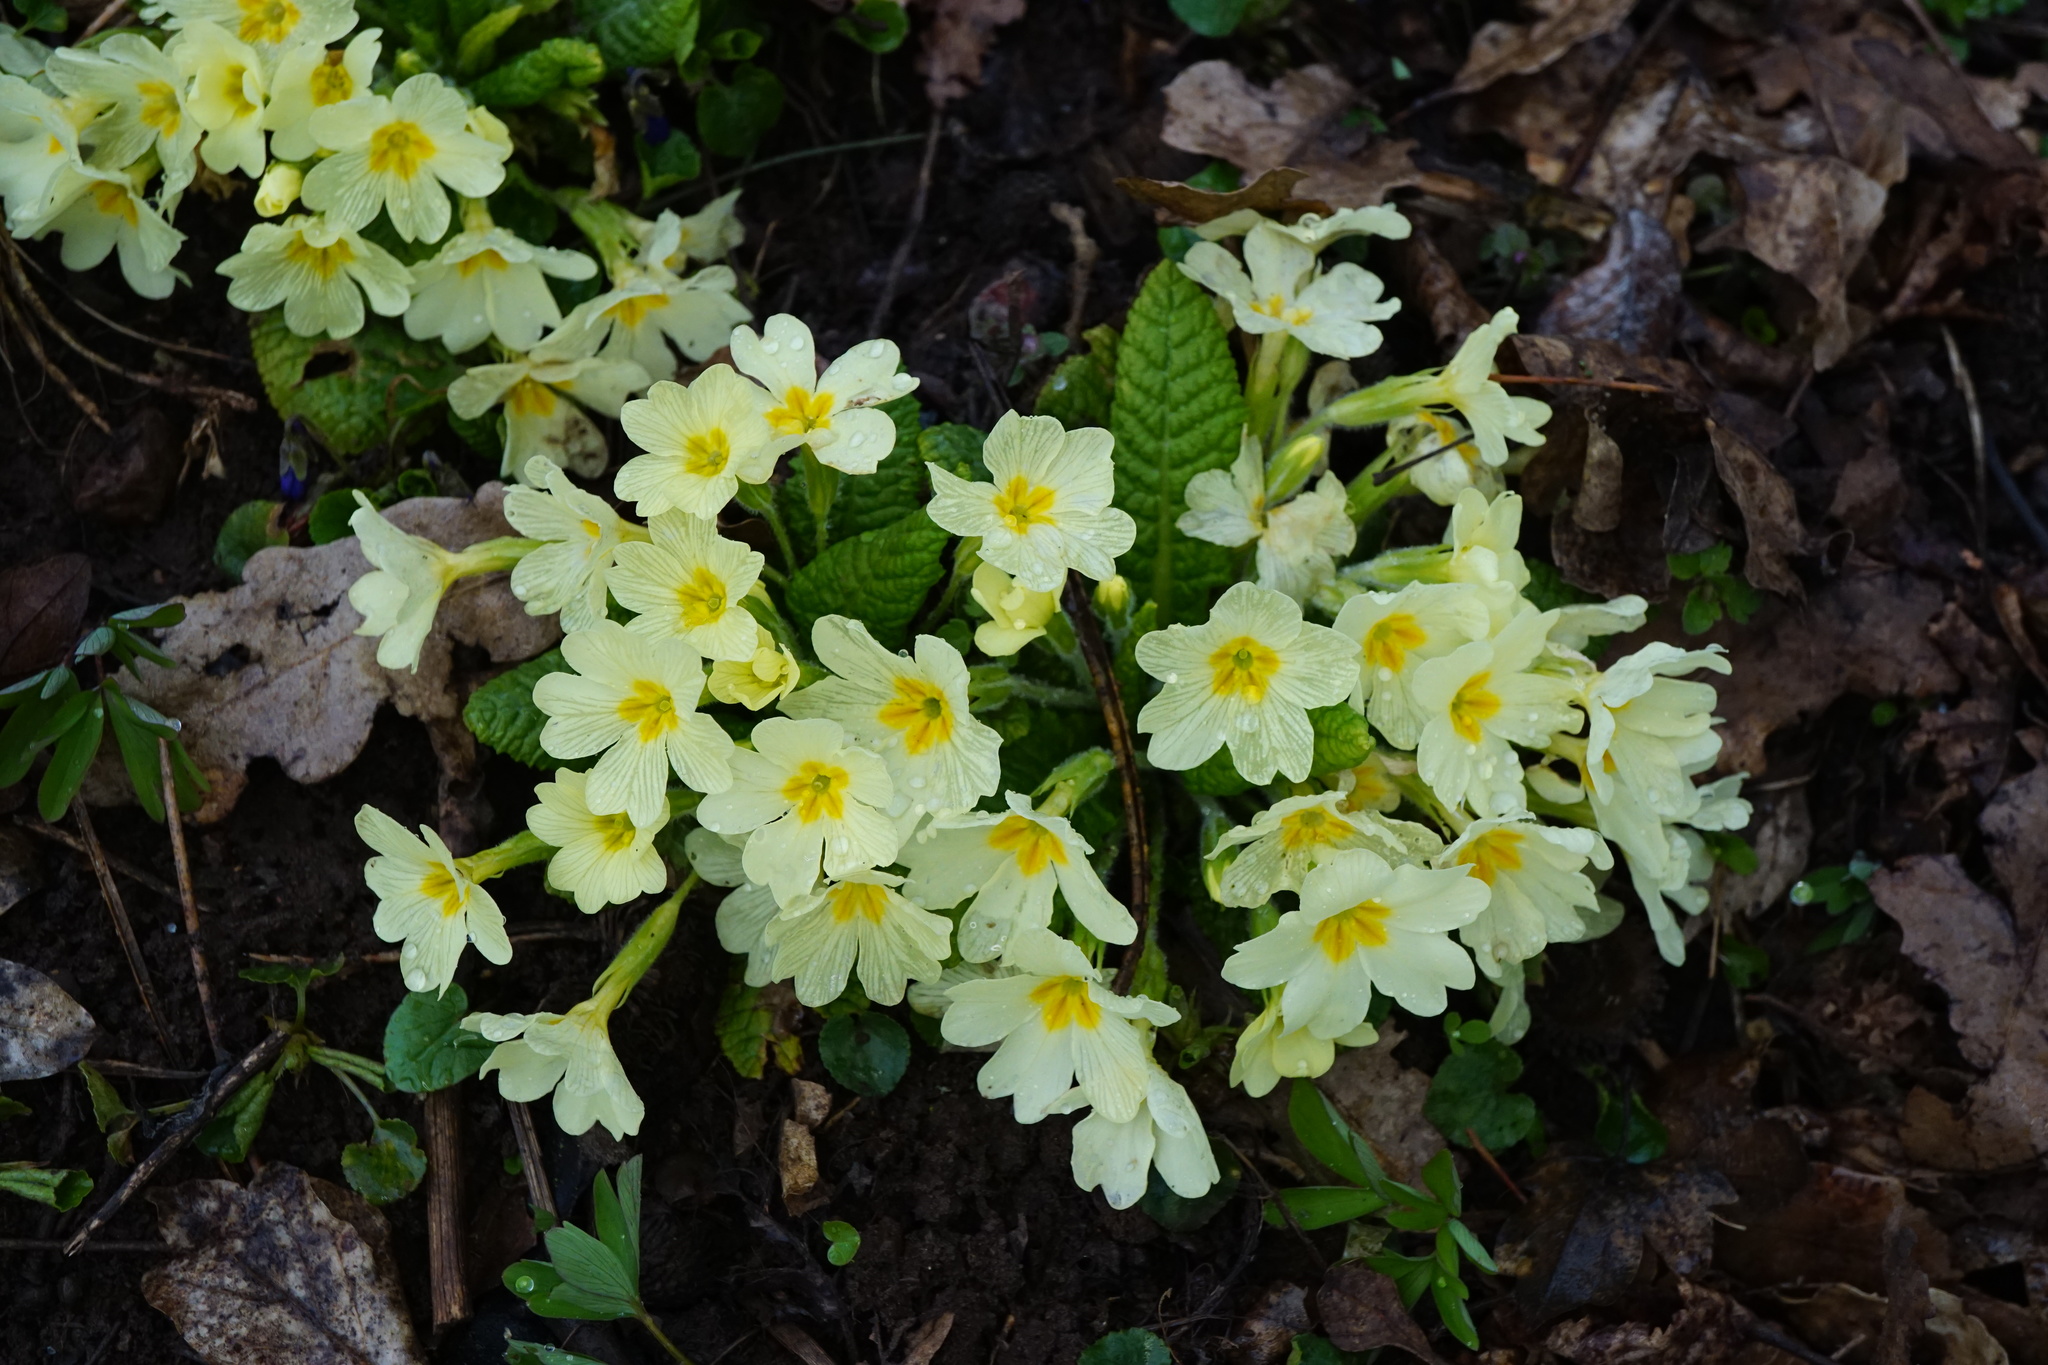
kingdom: Plantae
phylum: Tracheophyta
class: Magnoliopsida
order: Ericales
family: Primulaceae
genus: Primula
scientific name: Primula vulgaris
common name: Primrose
